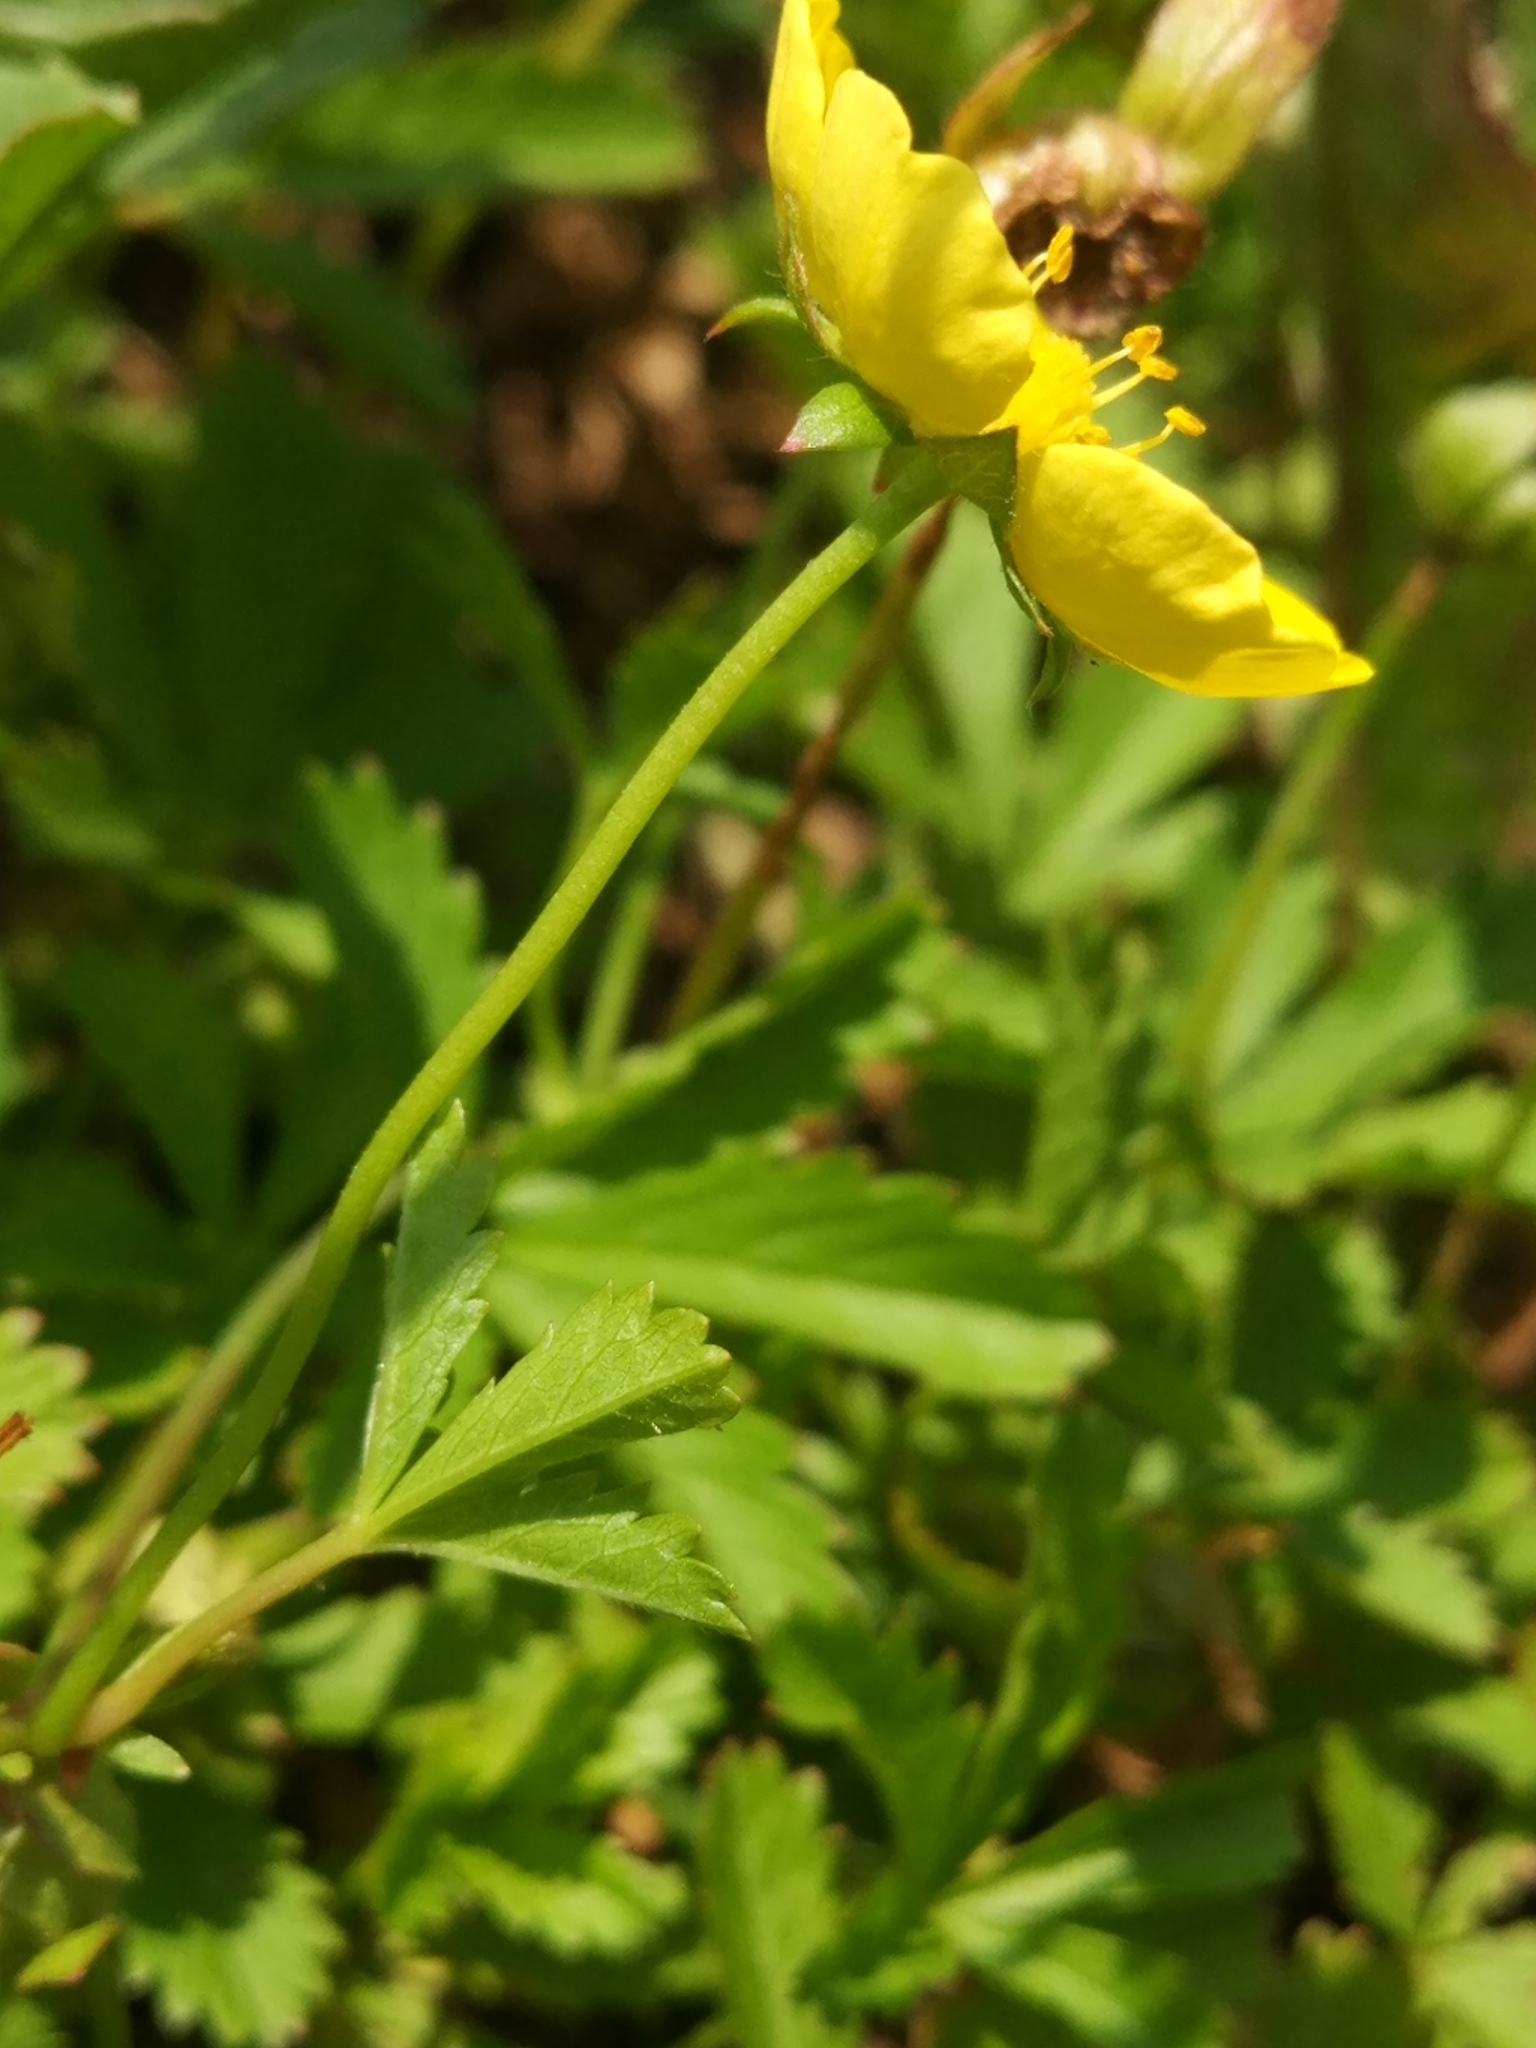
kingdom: Plantae
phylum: Tracheophyta
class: Magnoliopsida
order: Rosales
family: Rosaceae
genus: Potentilla
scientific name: Potentilla reptans
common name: Creeping cinquefoil
